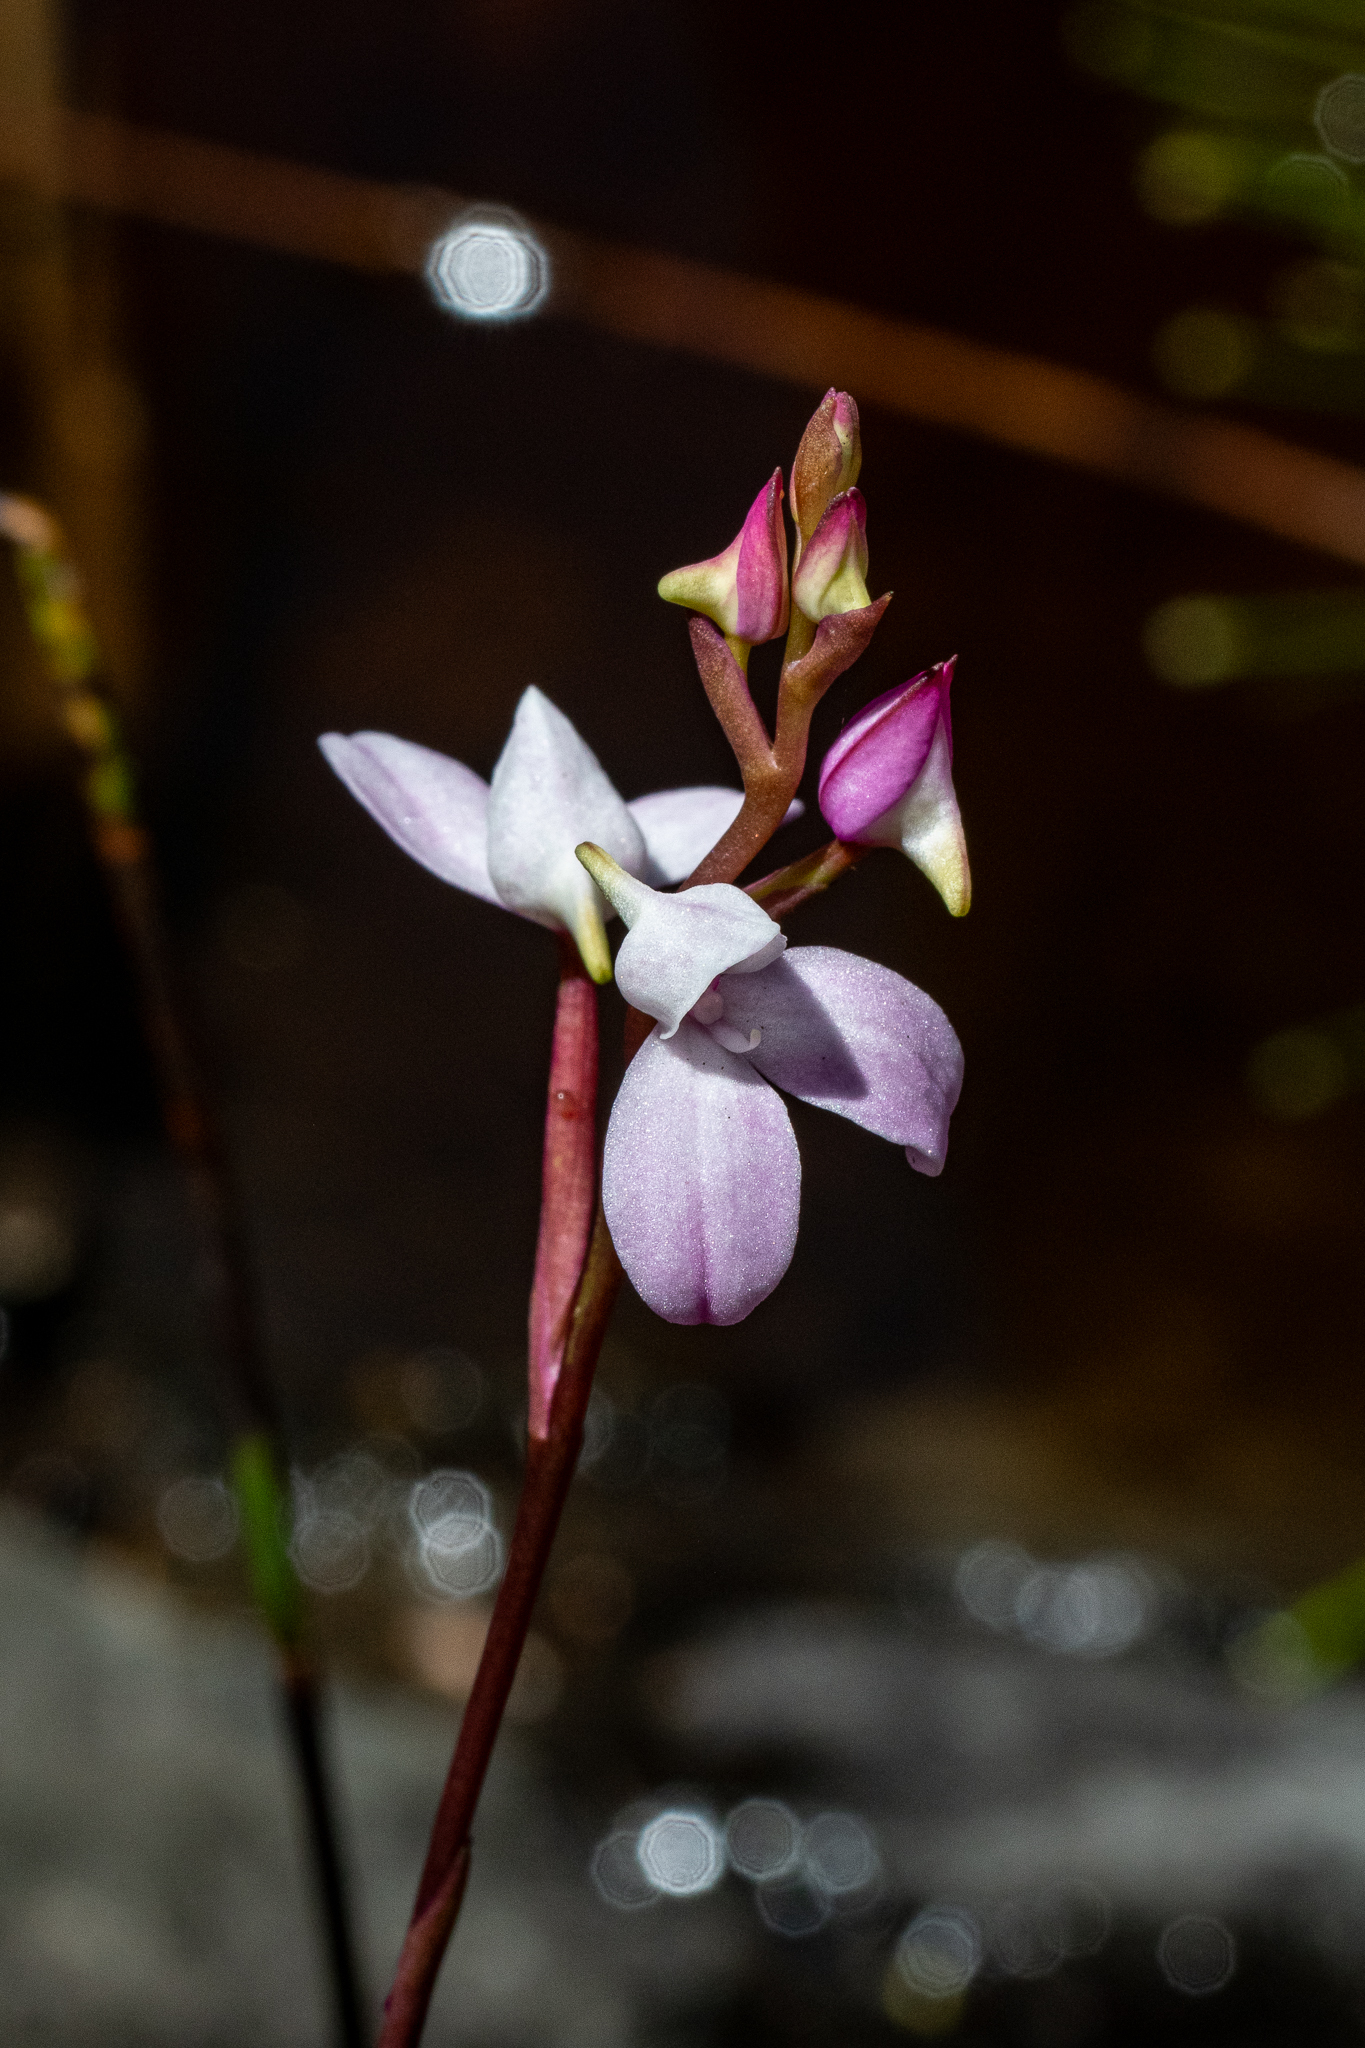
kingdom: Plantae
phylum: Tracheophyta
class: Liliopsida
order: Asparagales
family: Orchidaceae
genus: Disa
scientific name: Disa tripetaloides
